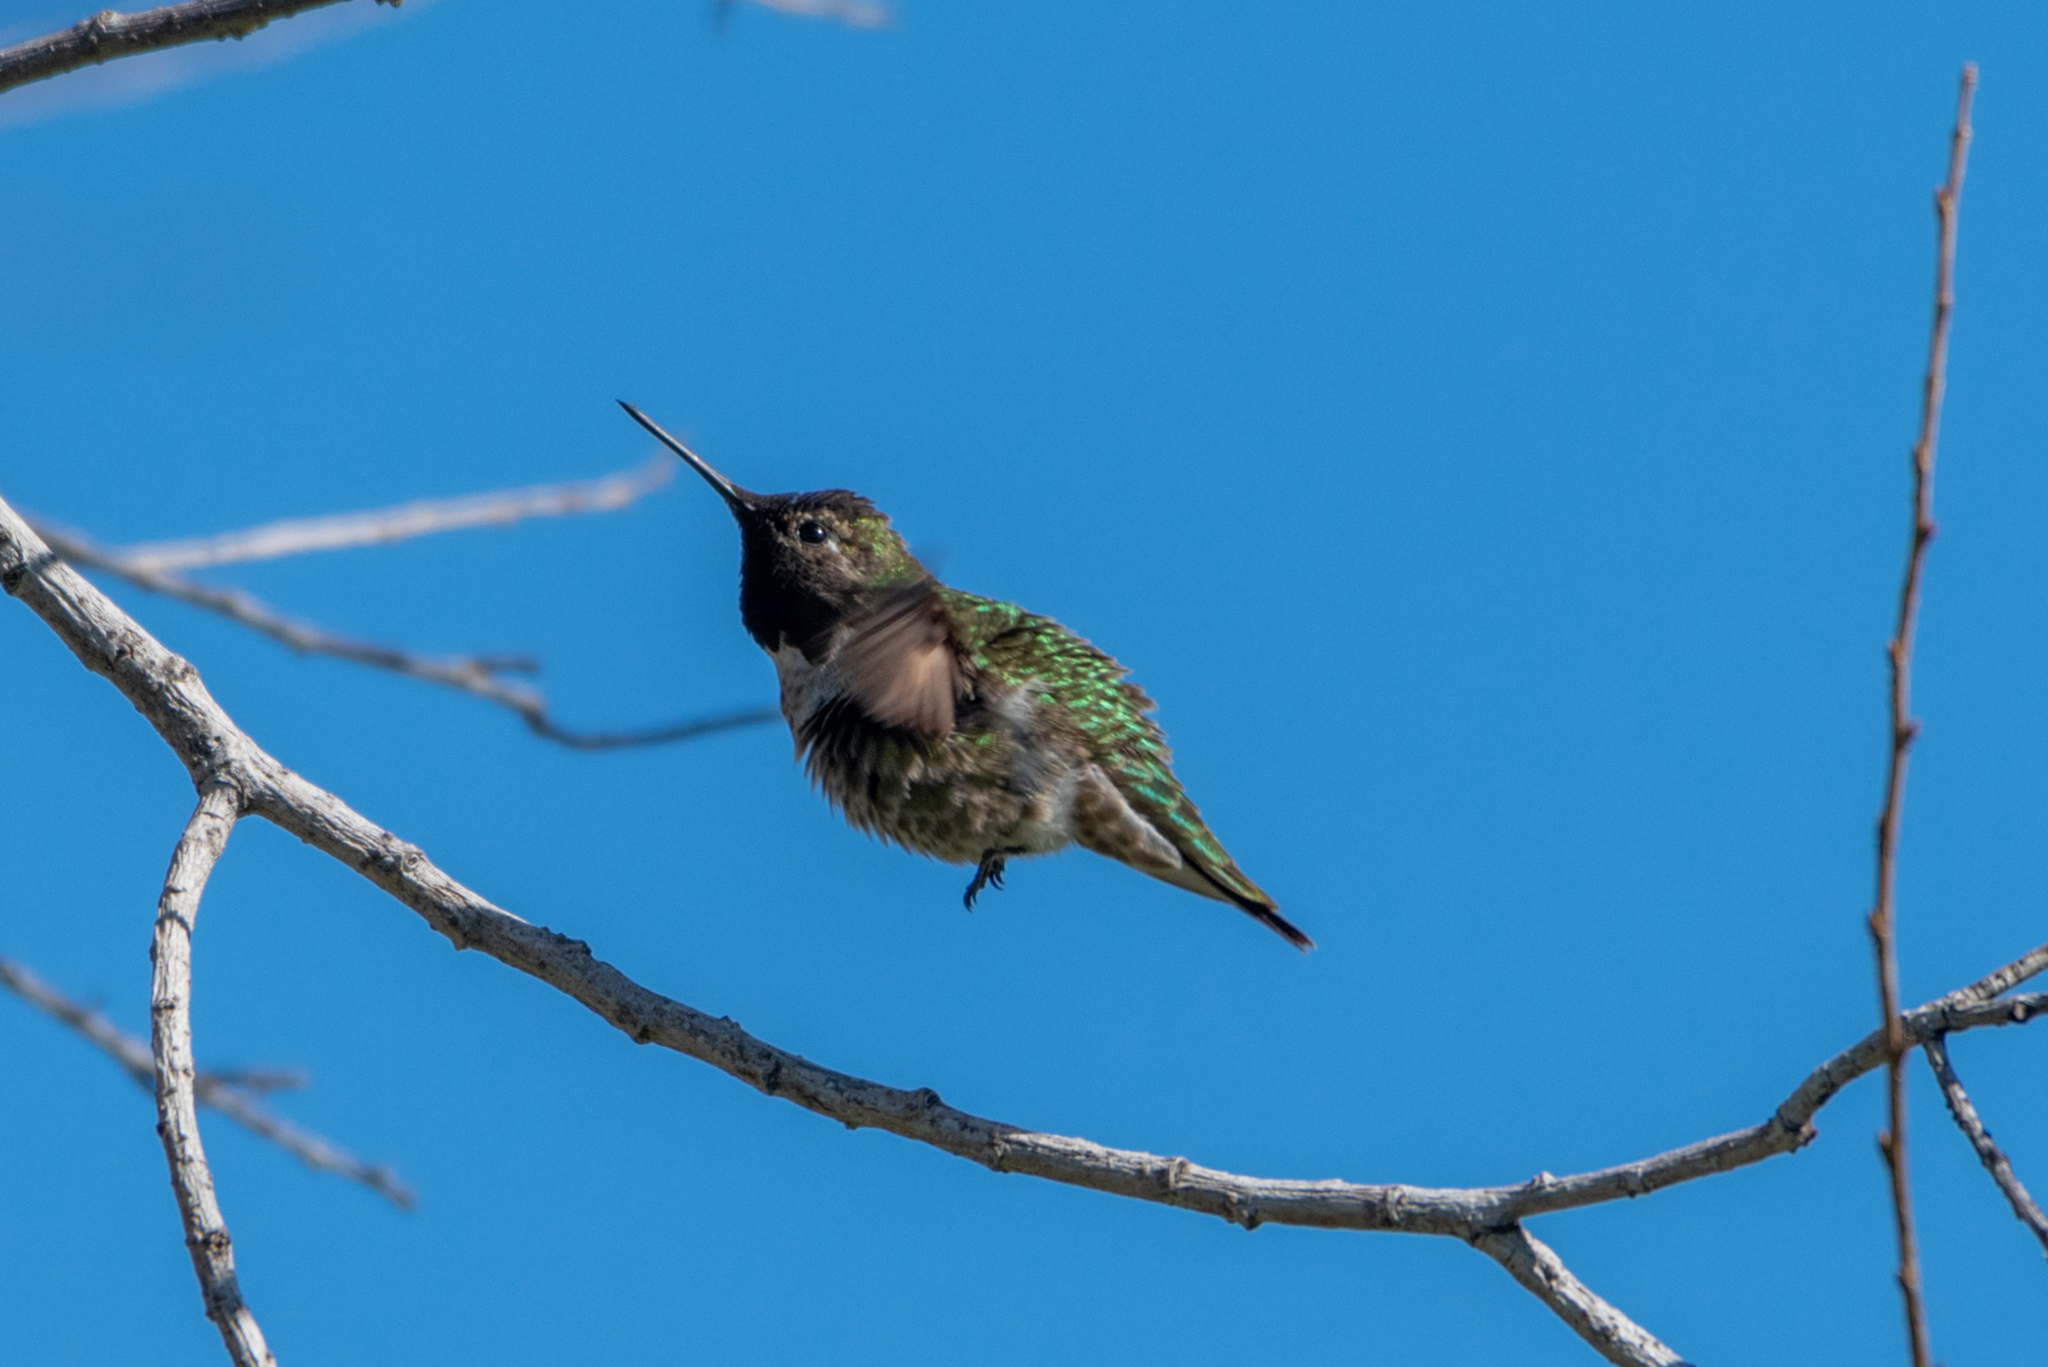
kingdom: Animalia
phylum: Chordata
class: Aves
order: Apodiformes
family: Trochilidae
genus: Calypte
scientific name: Calypte anna
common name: Anna's hummingbird
